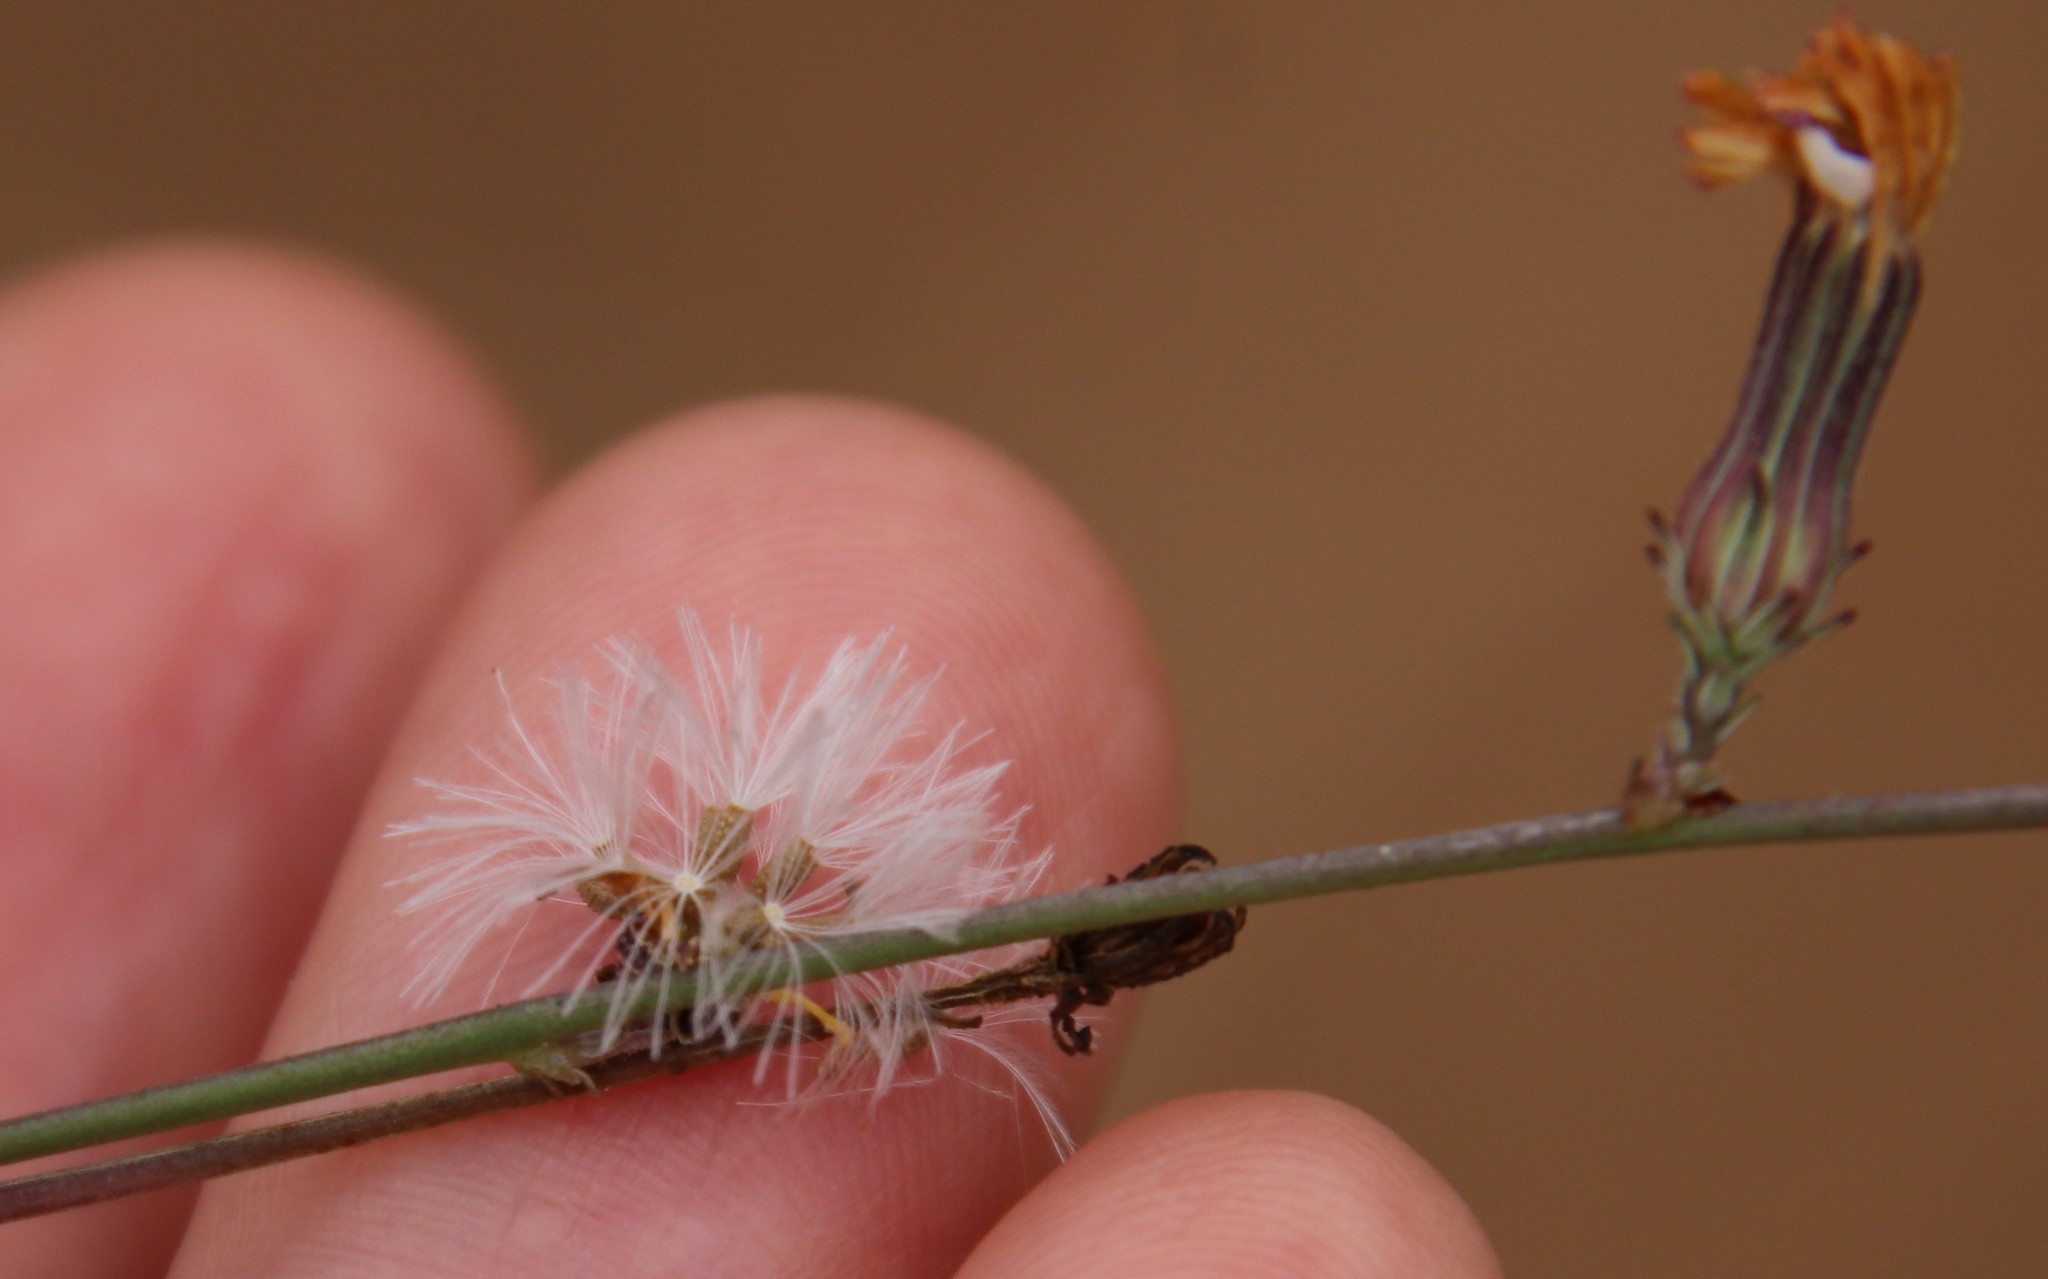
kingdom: Plantae
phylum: Tracheophyta
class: Magnoliopsida
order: Asterales
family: Asteraceae
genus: Stephanomeria
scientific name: Stephanomeria diegensis
